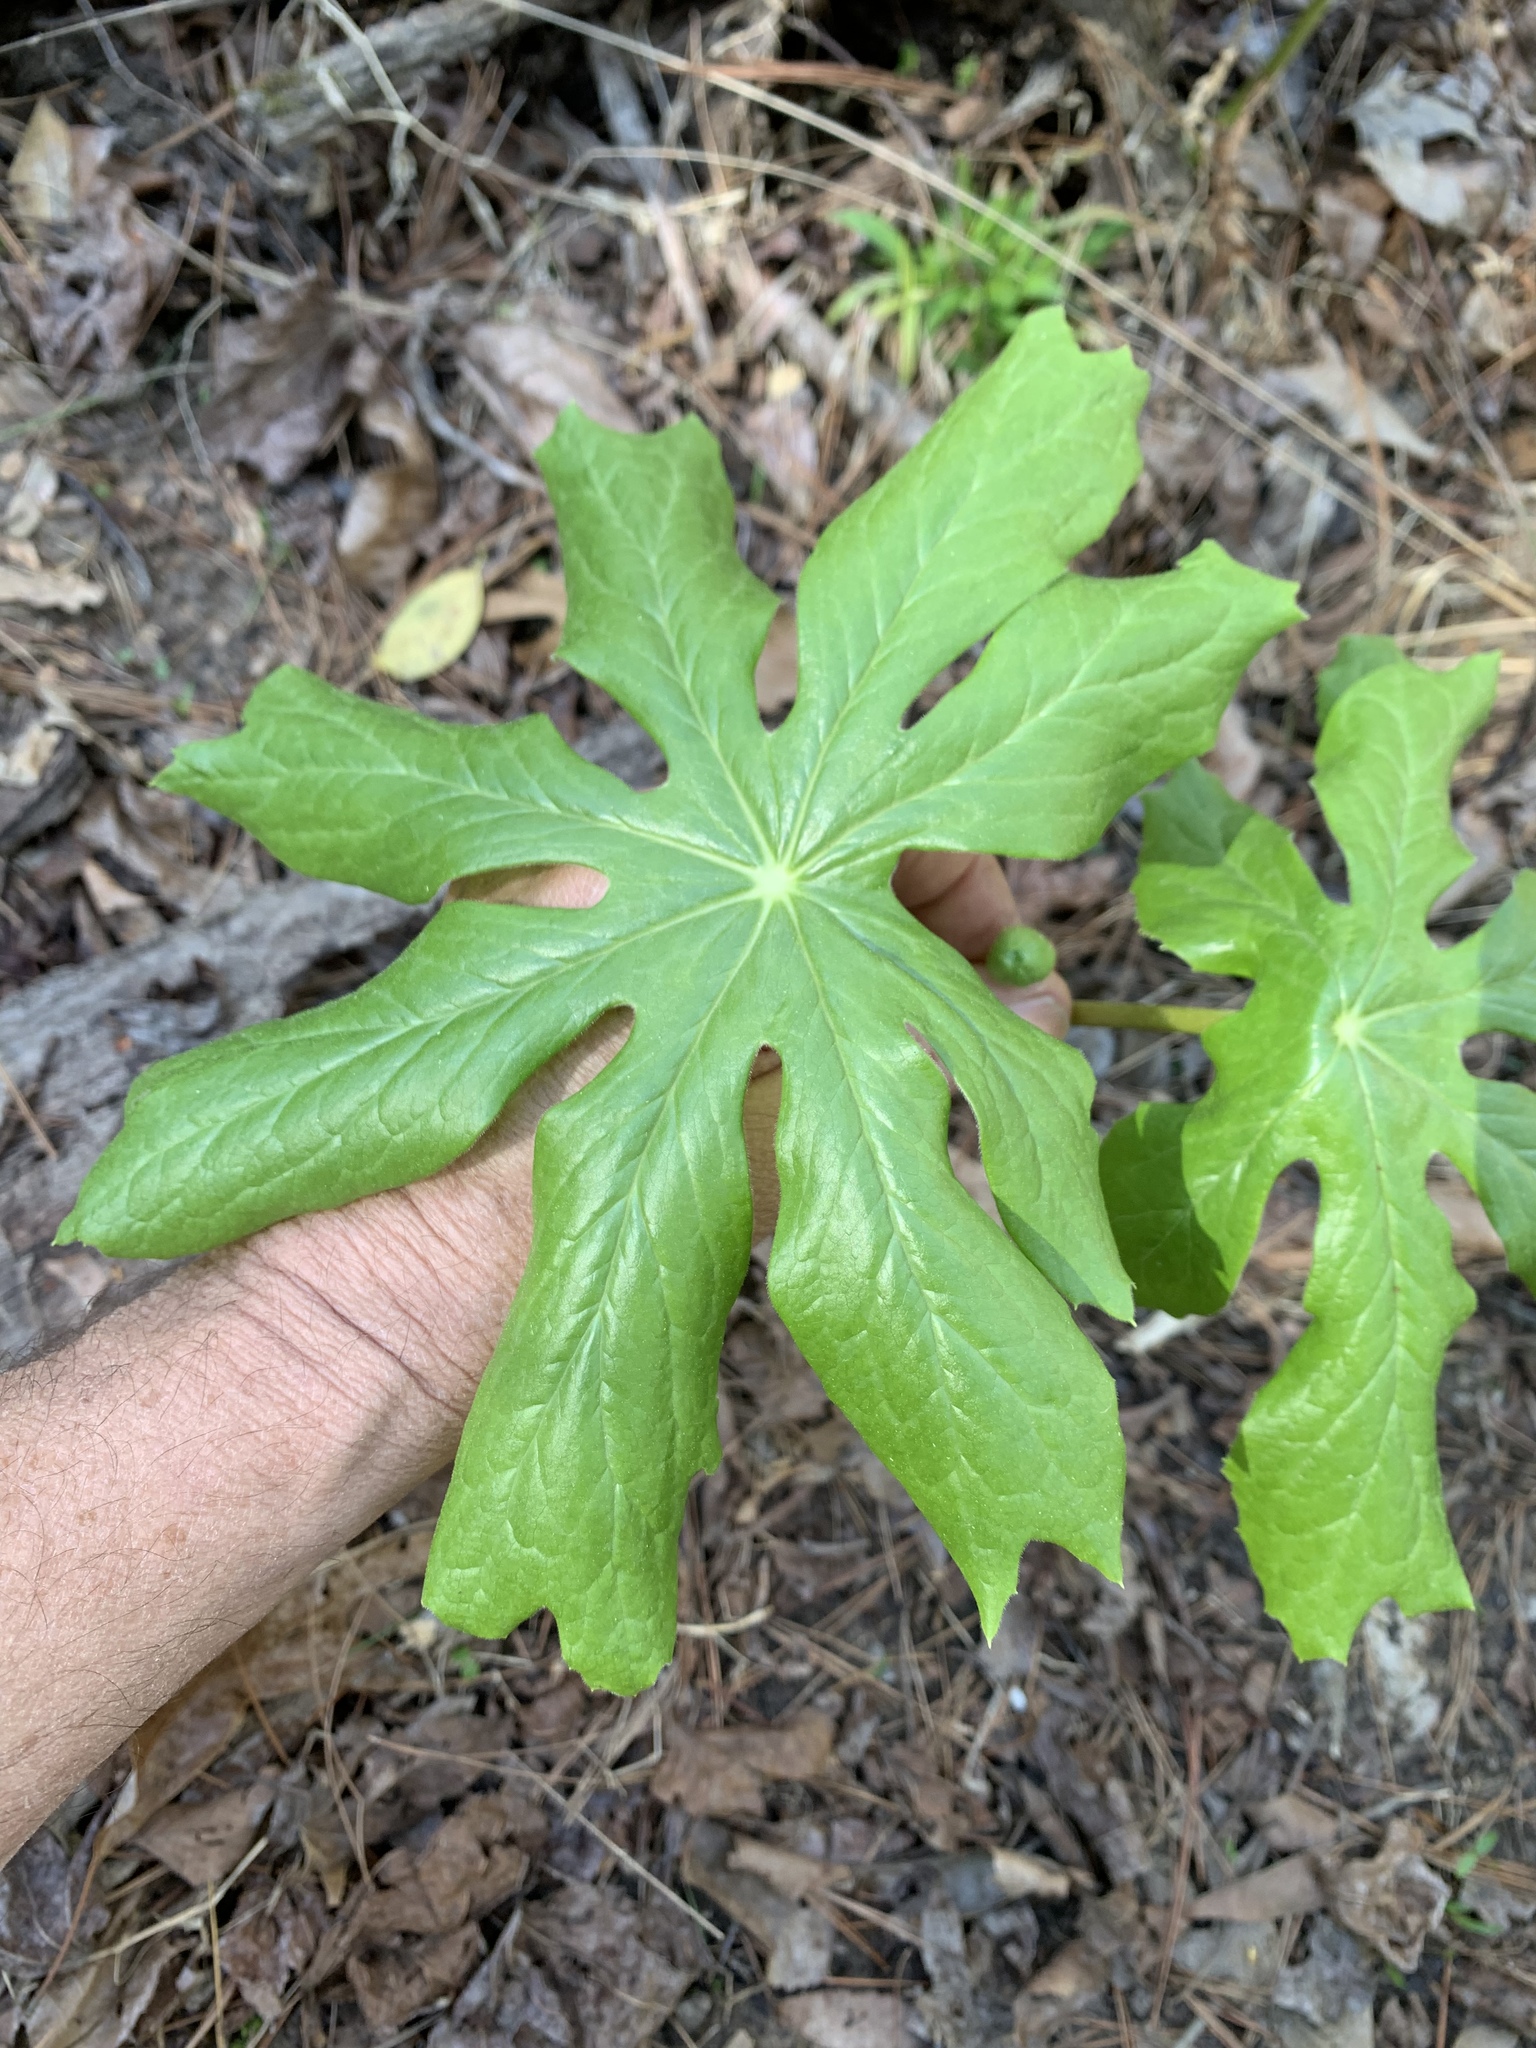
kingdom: Plantae
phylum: Tracheophyta
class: Magnoliopsida
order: Ranunculales
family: Berberidaceae
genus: Podophyllum
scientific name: Podophyllum peltatum
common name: Wild mandrake
